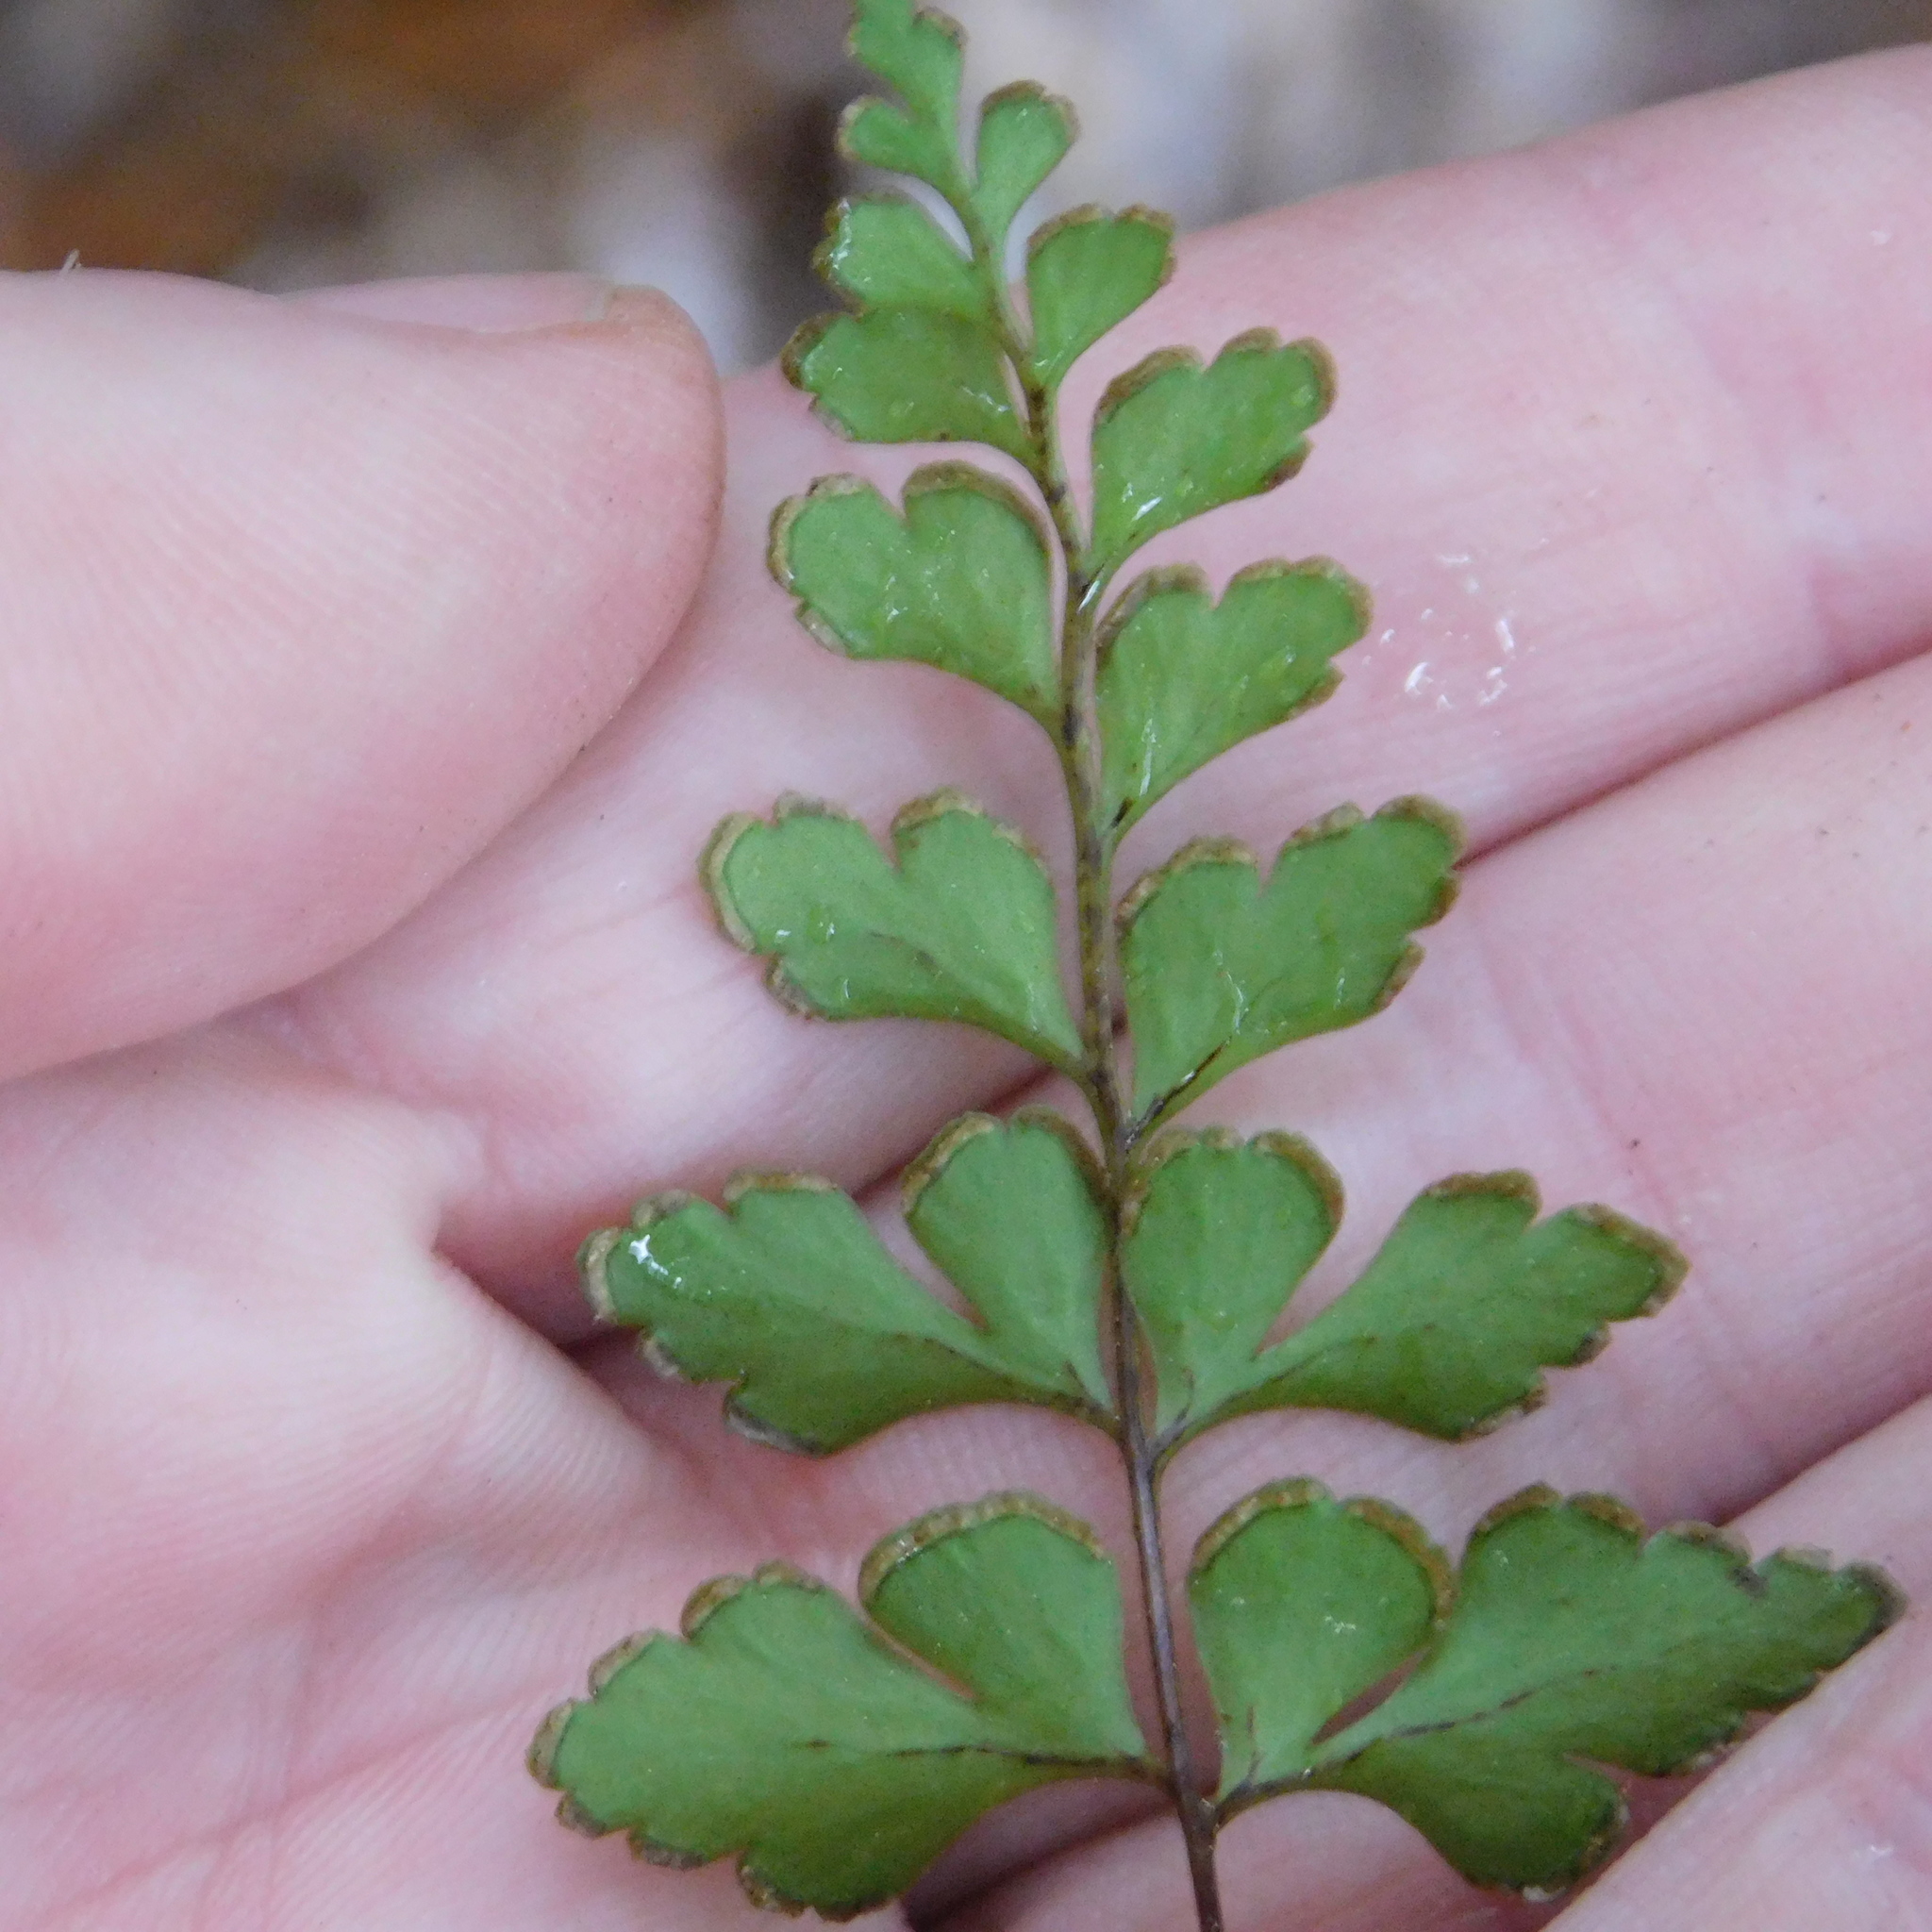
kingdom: Plantae
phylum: Tracheophyta
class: Polypodiopsida
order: Polypodiales
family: Lindsaeaceae
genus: Lindsaea
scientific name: Lindsaea trichomanoides
